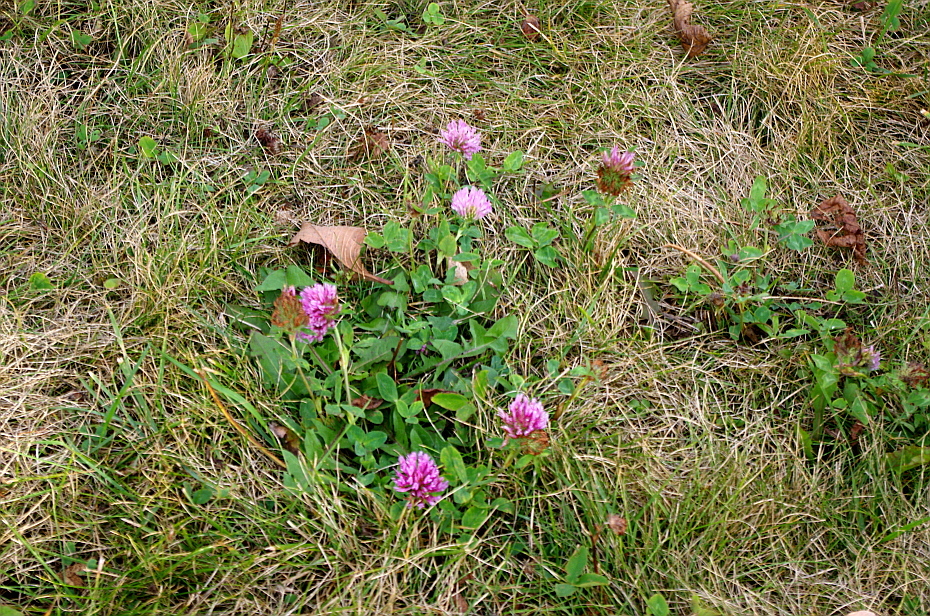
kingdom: Plantae
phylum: Tracheophyta
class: Magnoliopsida
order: Fabales
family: Fabaceae
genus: Trifolium
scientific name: Trifolium pratense
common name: Red clover
